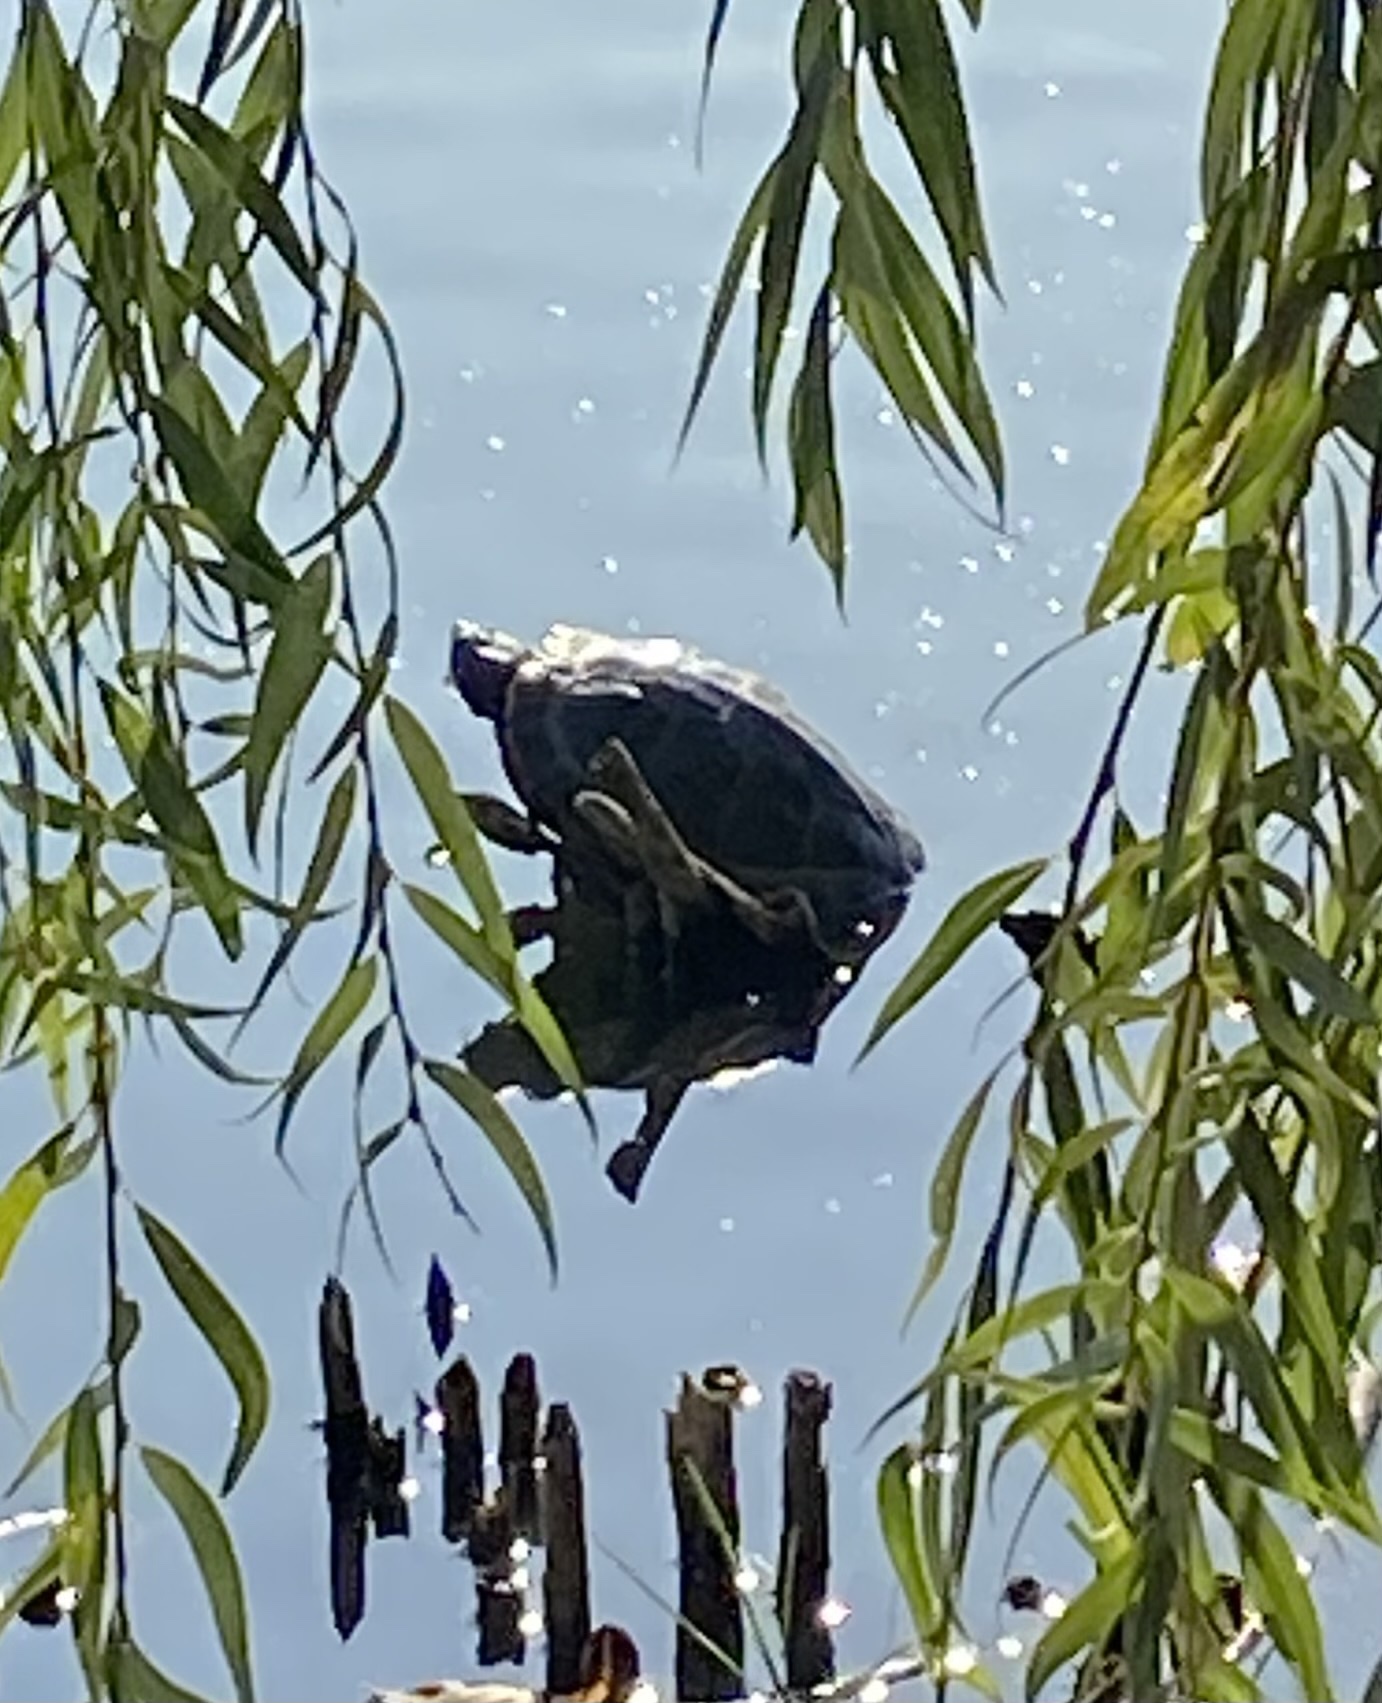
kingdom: Animalia
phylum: Chordata
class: Testudines
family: Emydidae
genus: Trachemys
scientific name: Trachemys scripta
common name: Slider
